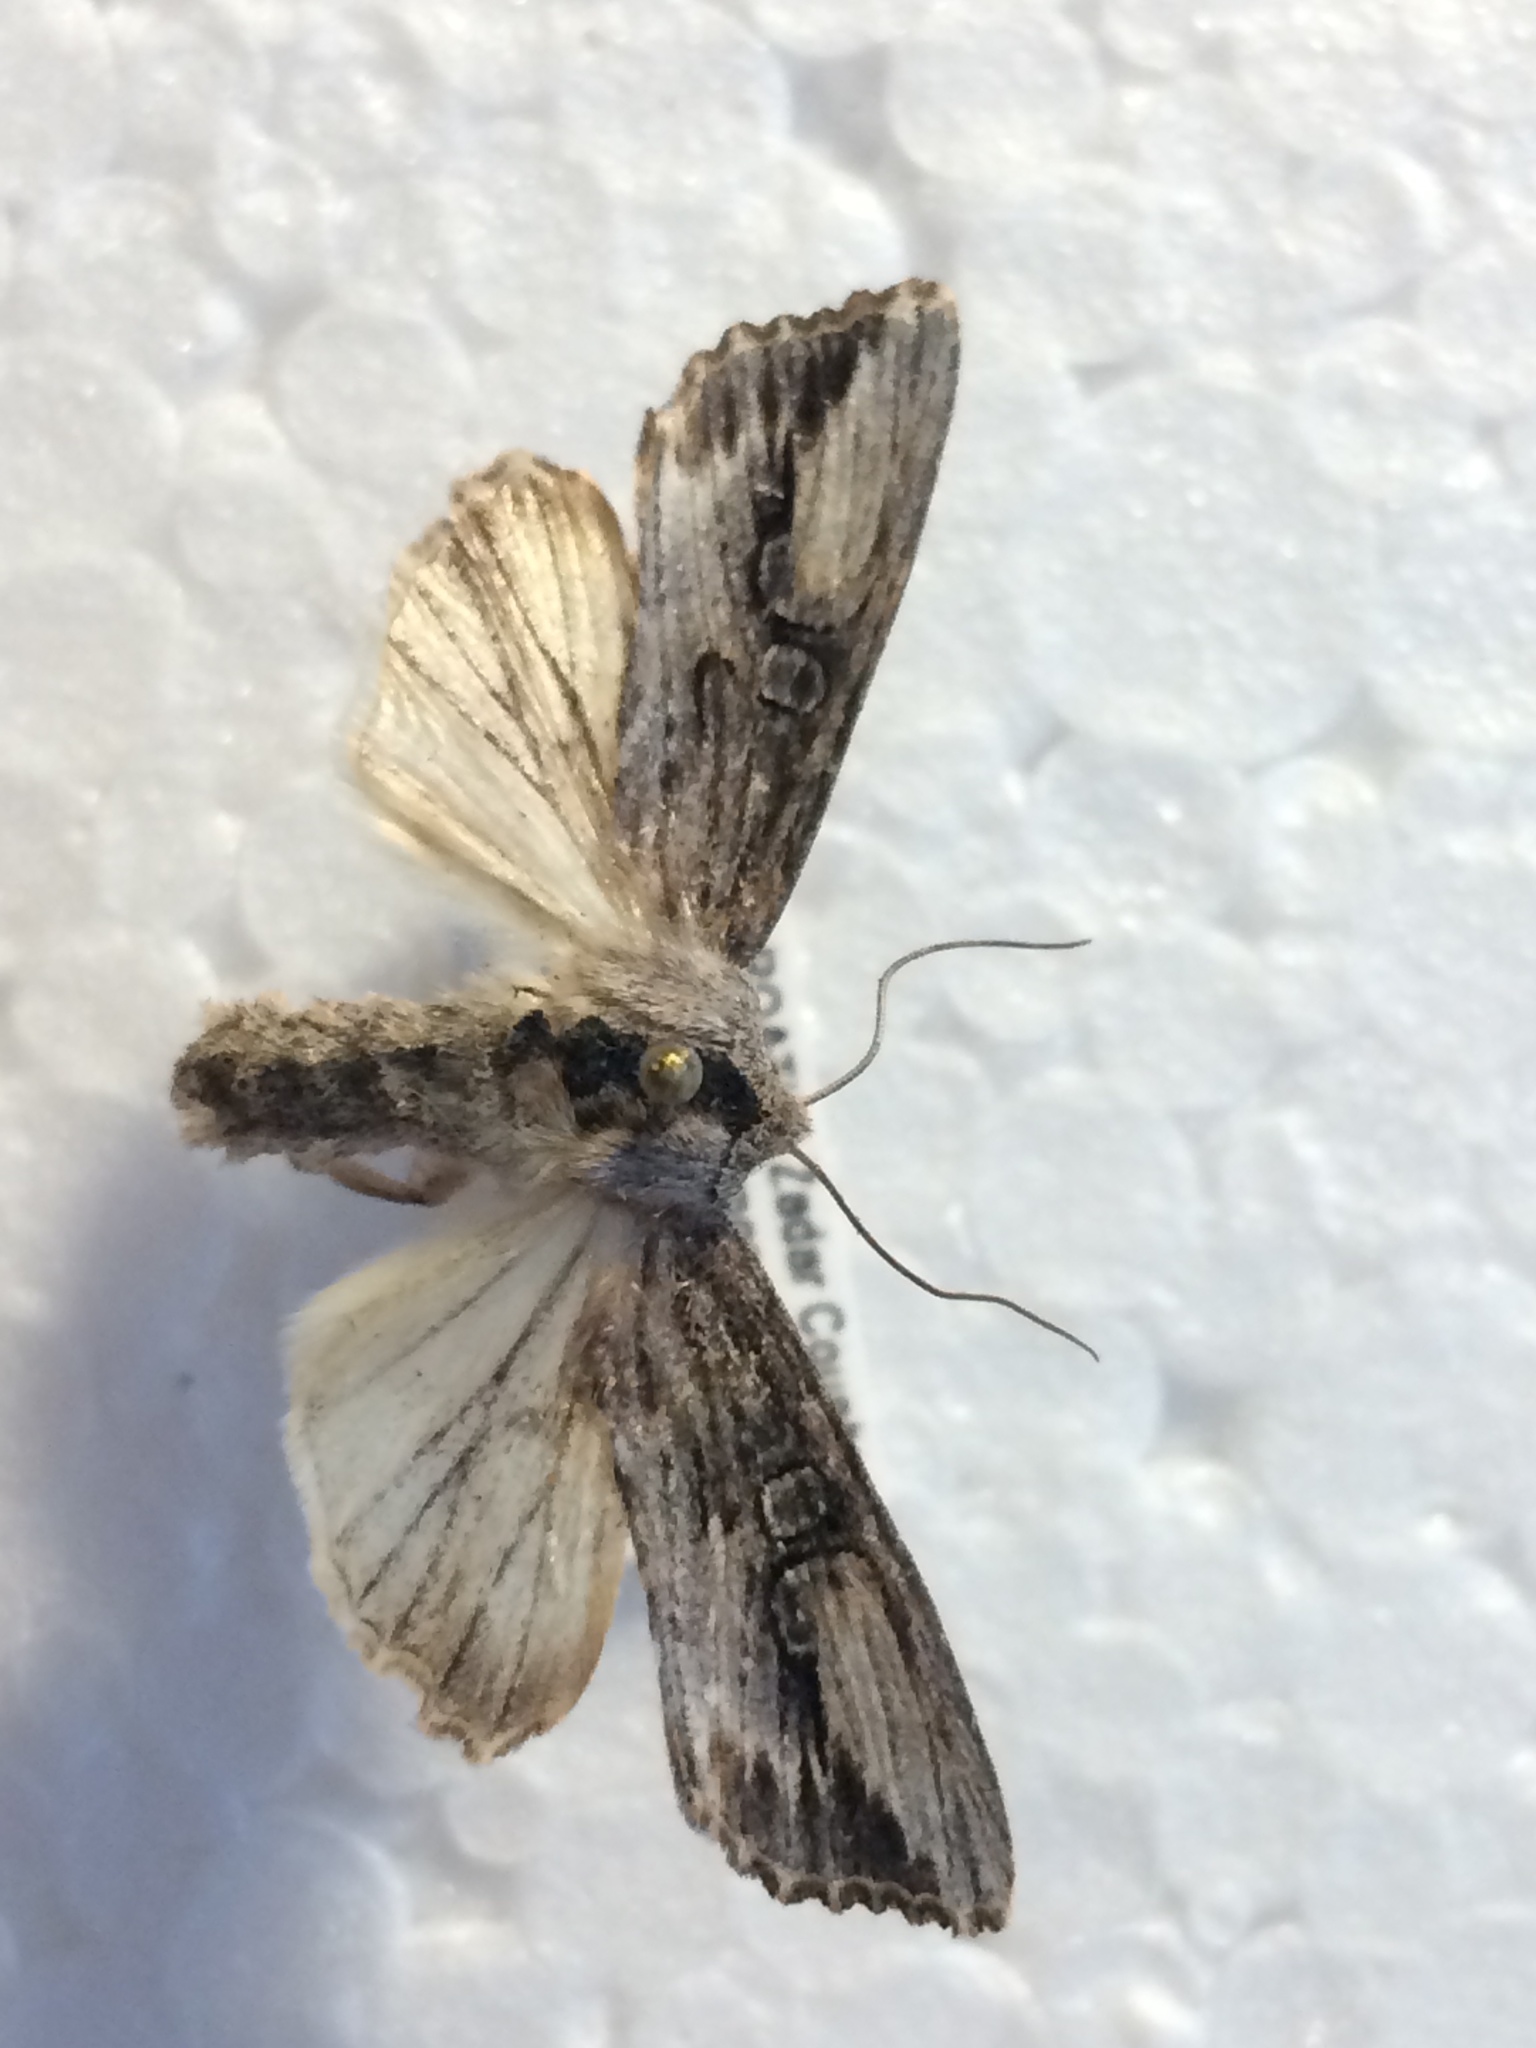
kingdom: Animalia
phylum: Arthropoda
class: Insecta
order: Lepidoptera
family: Noctuidae
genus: Egira
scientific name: Egira conspicillaris
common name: Silver cloud
